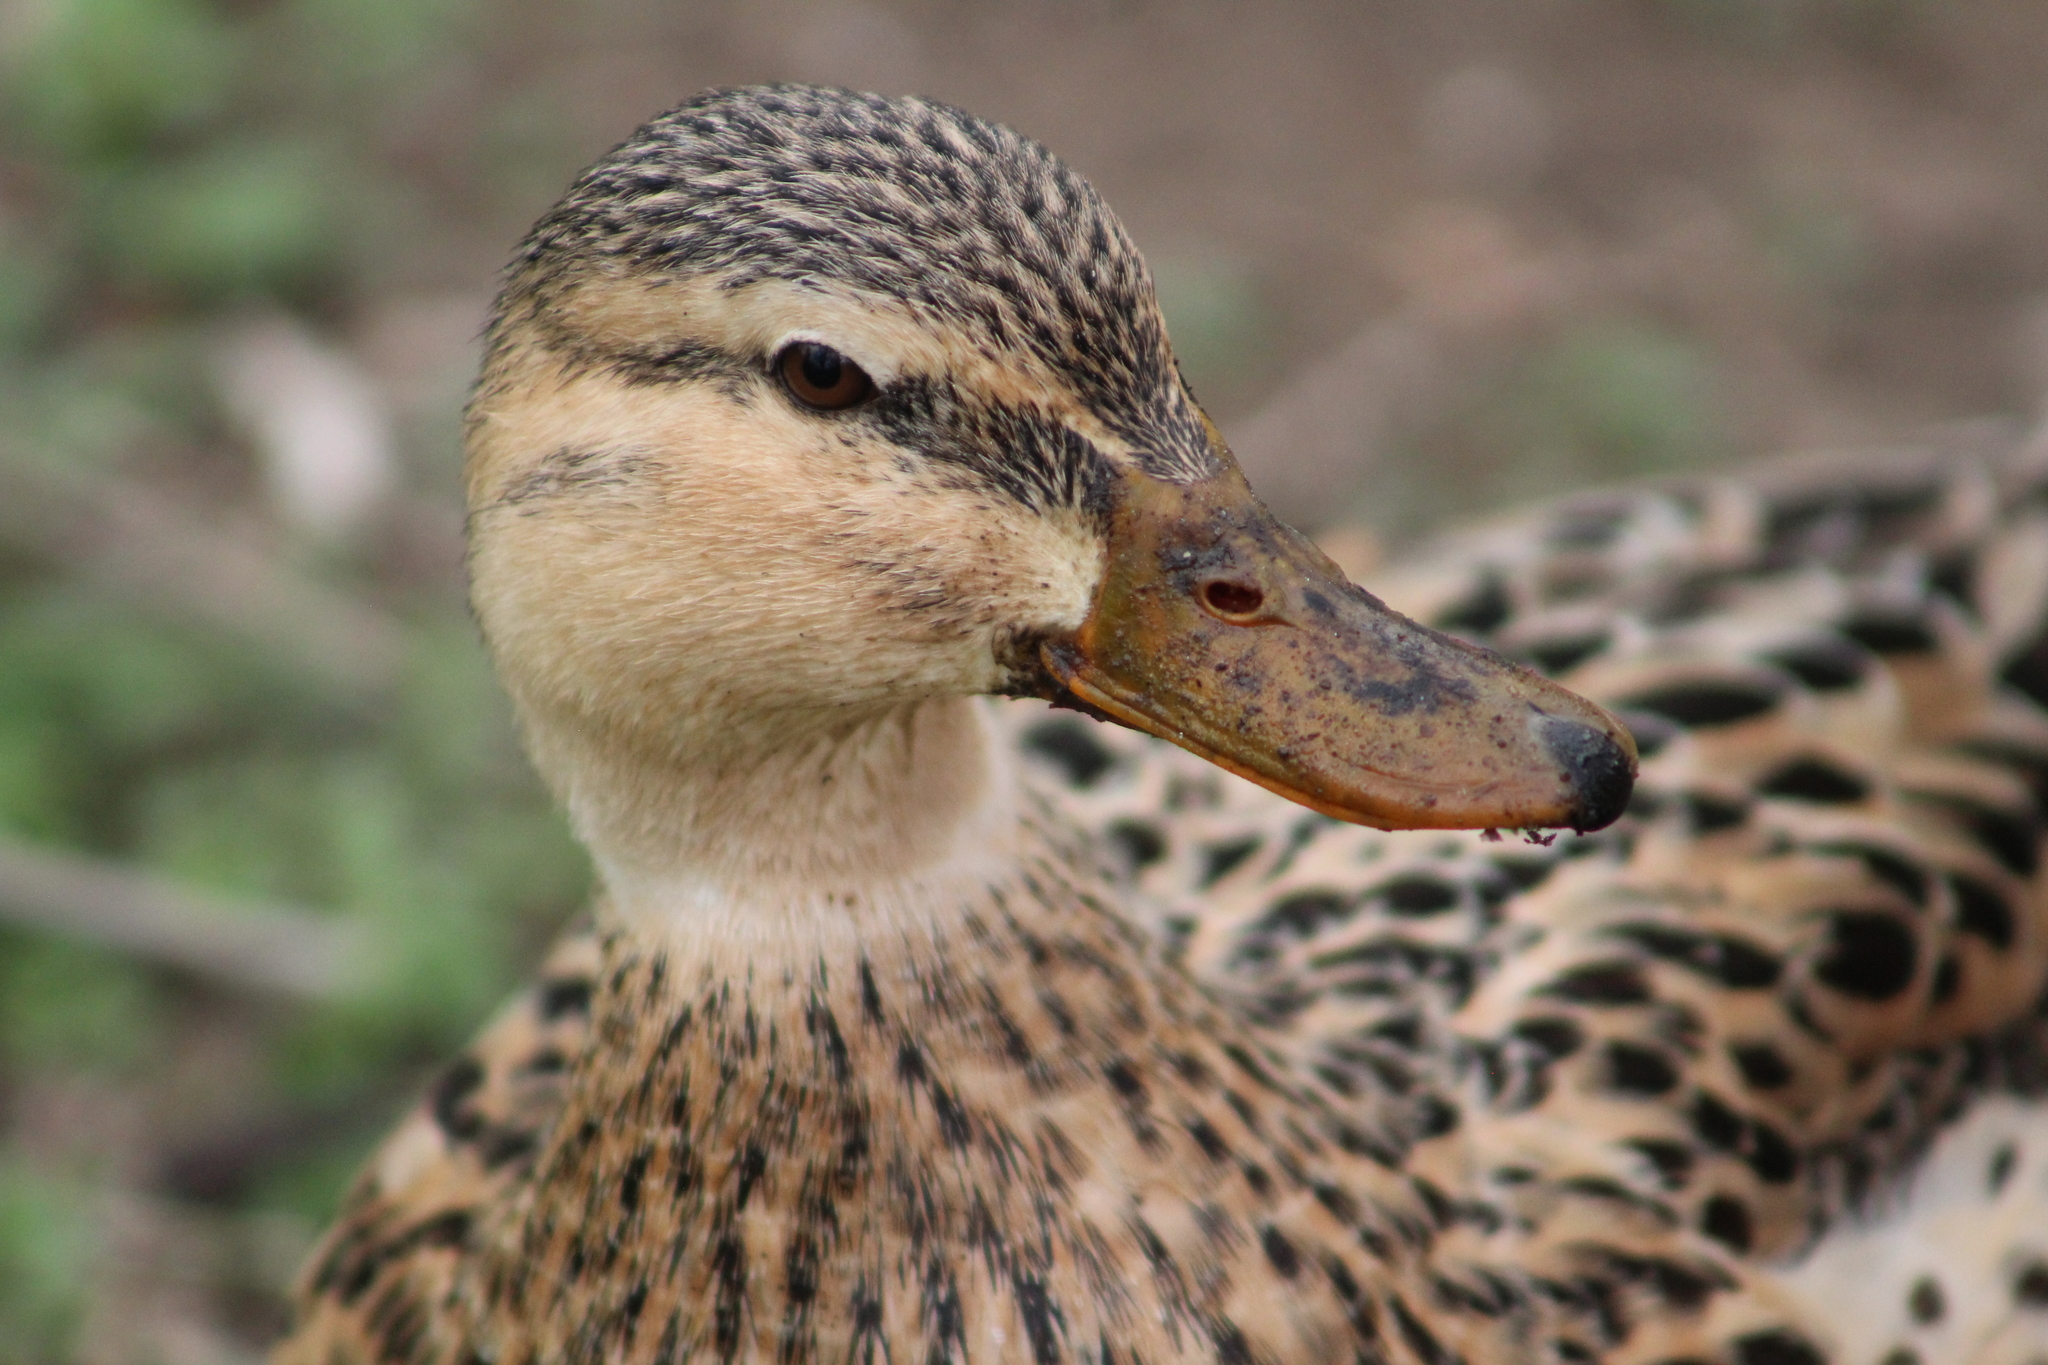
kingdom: Animalia
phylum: Chordata
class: Aves
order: Anseriformes
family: Anatidae
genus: Anas
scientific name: Anas platyrhynchos
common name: Mallard
